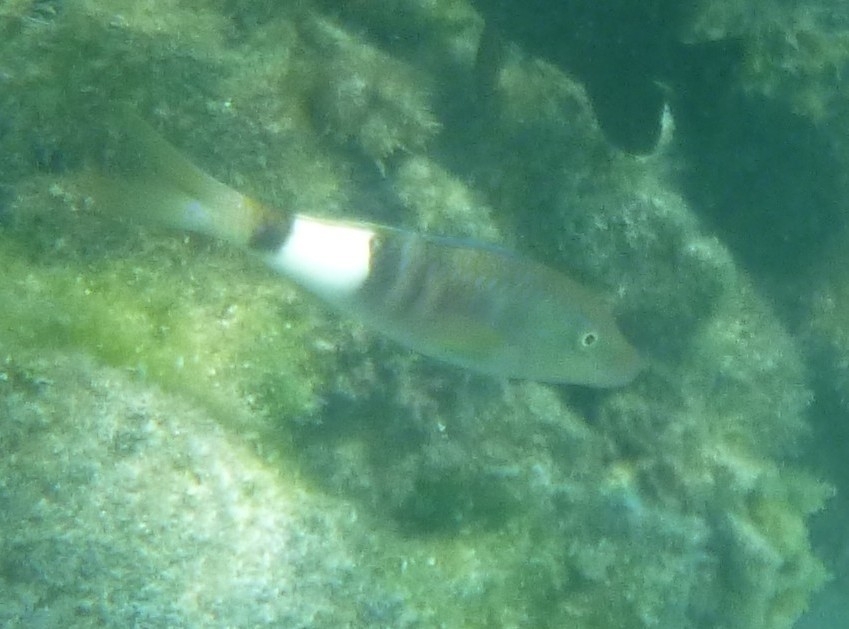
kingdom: Animalia
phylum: Chordata
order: Perciformes
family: Mullidae
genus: Parupeneus
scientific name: Parupeneus multifasciatus
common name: Manybar goatfish
